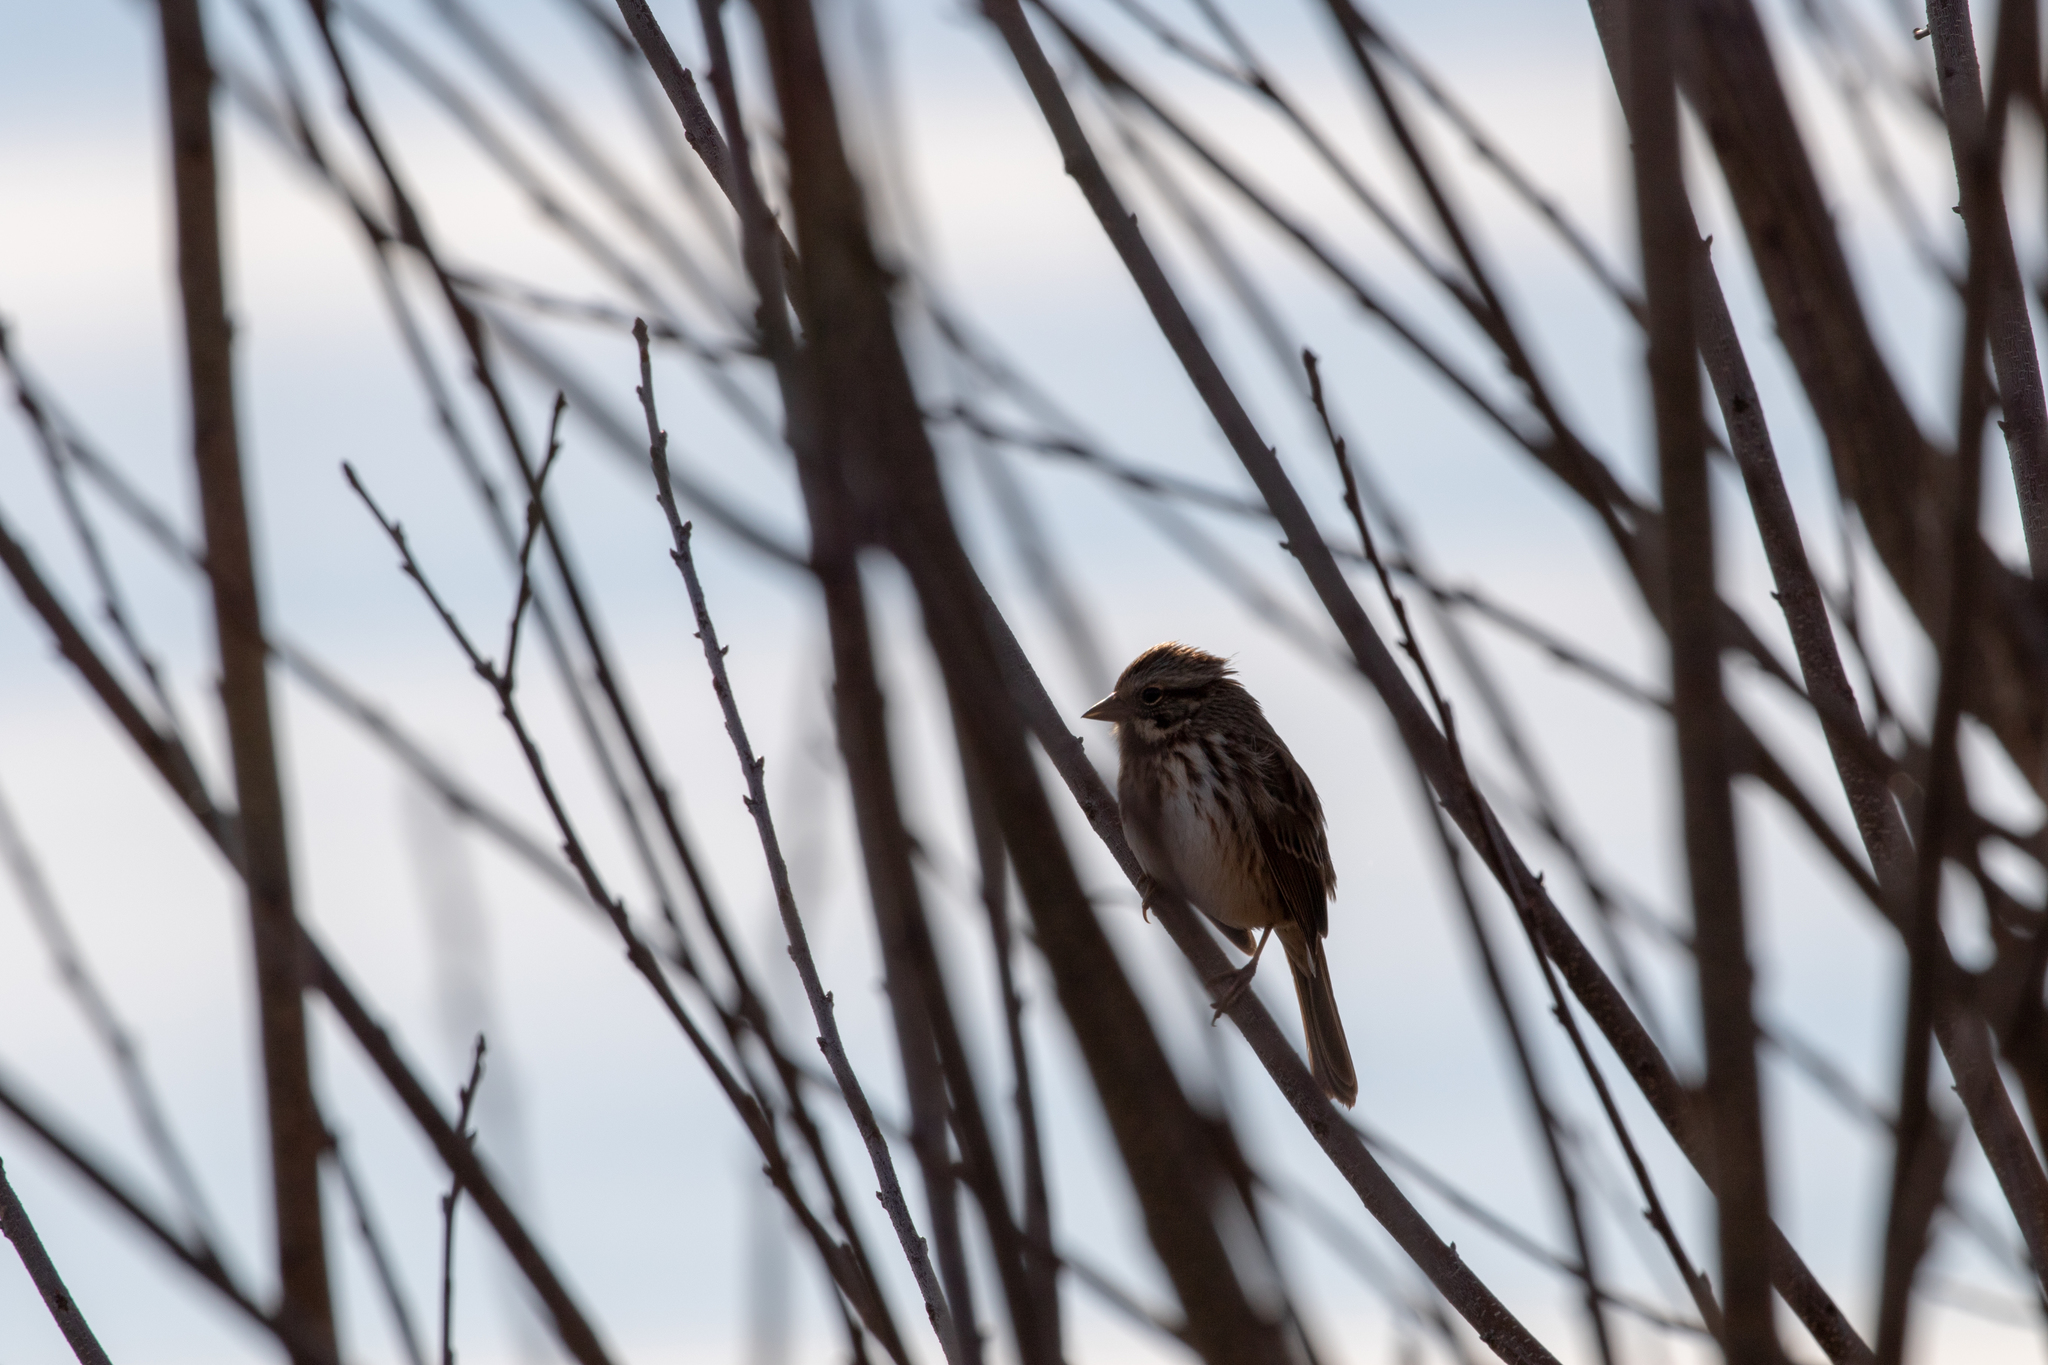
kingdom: Animalia
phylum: Chordata
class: Aves
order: Passeriformes
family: Passerellidae
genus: Melospiza
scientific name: Melospiza melodia
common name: Song sparrow
